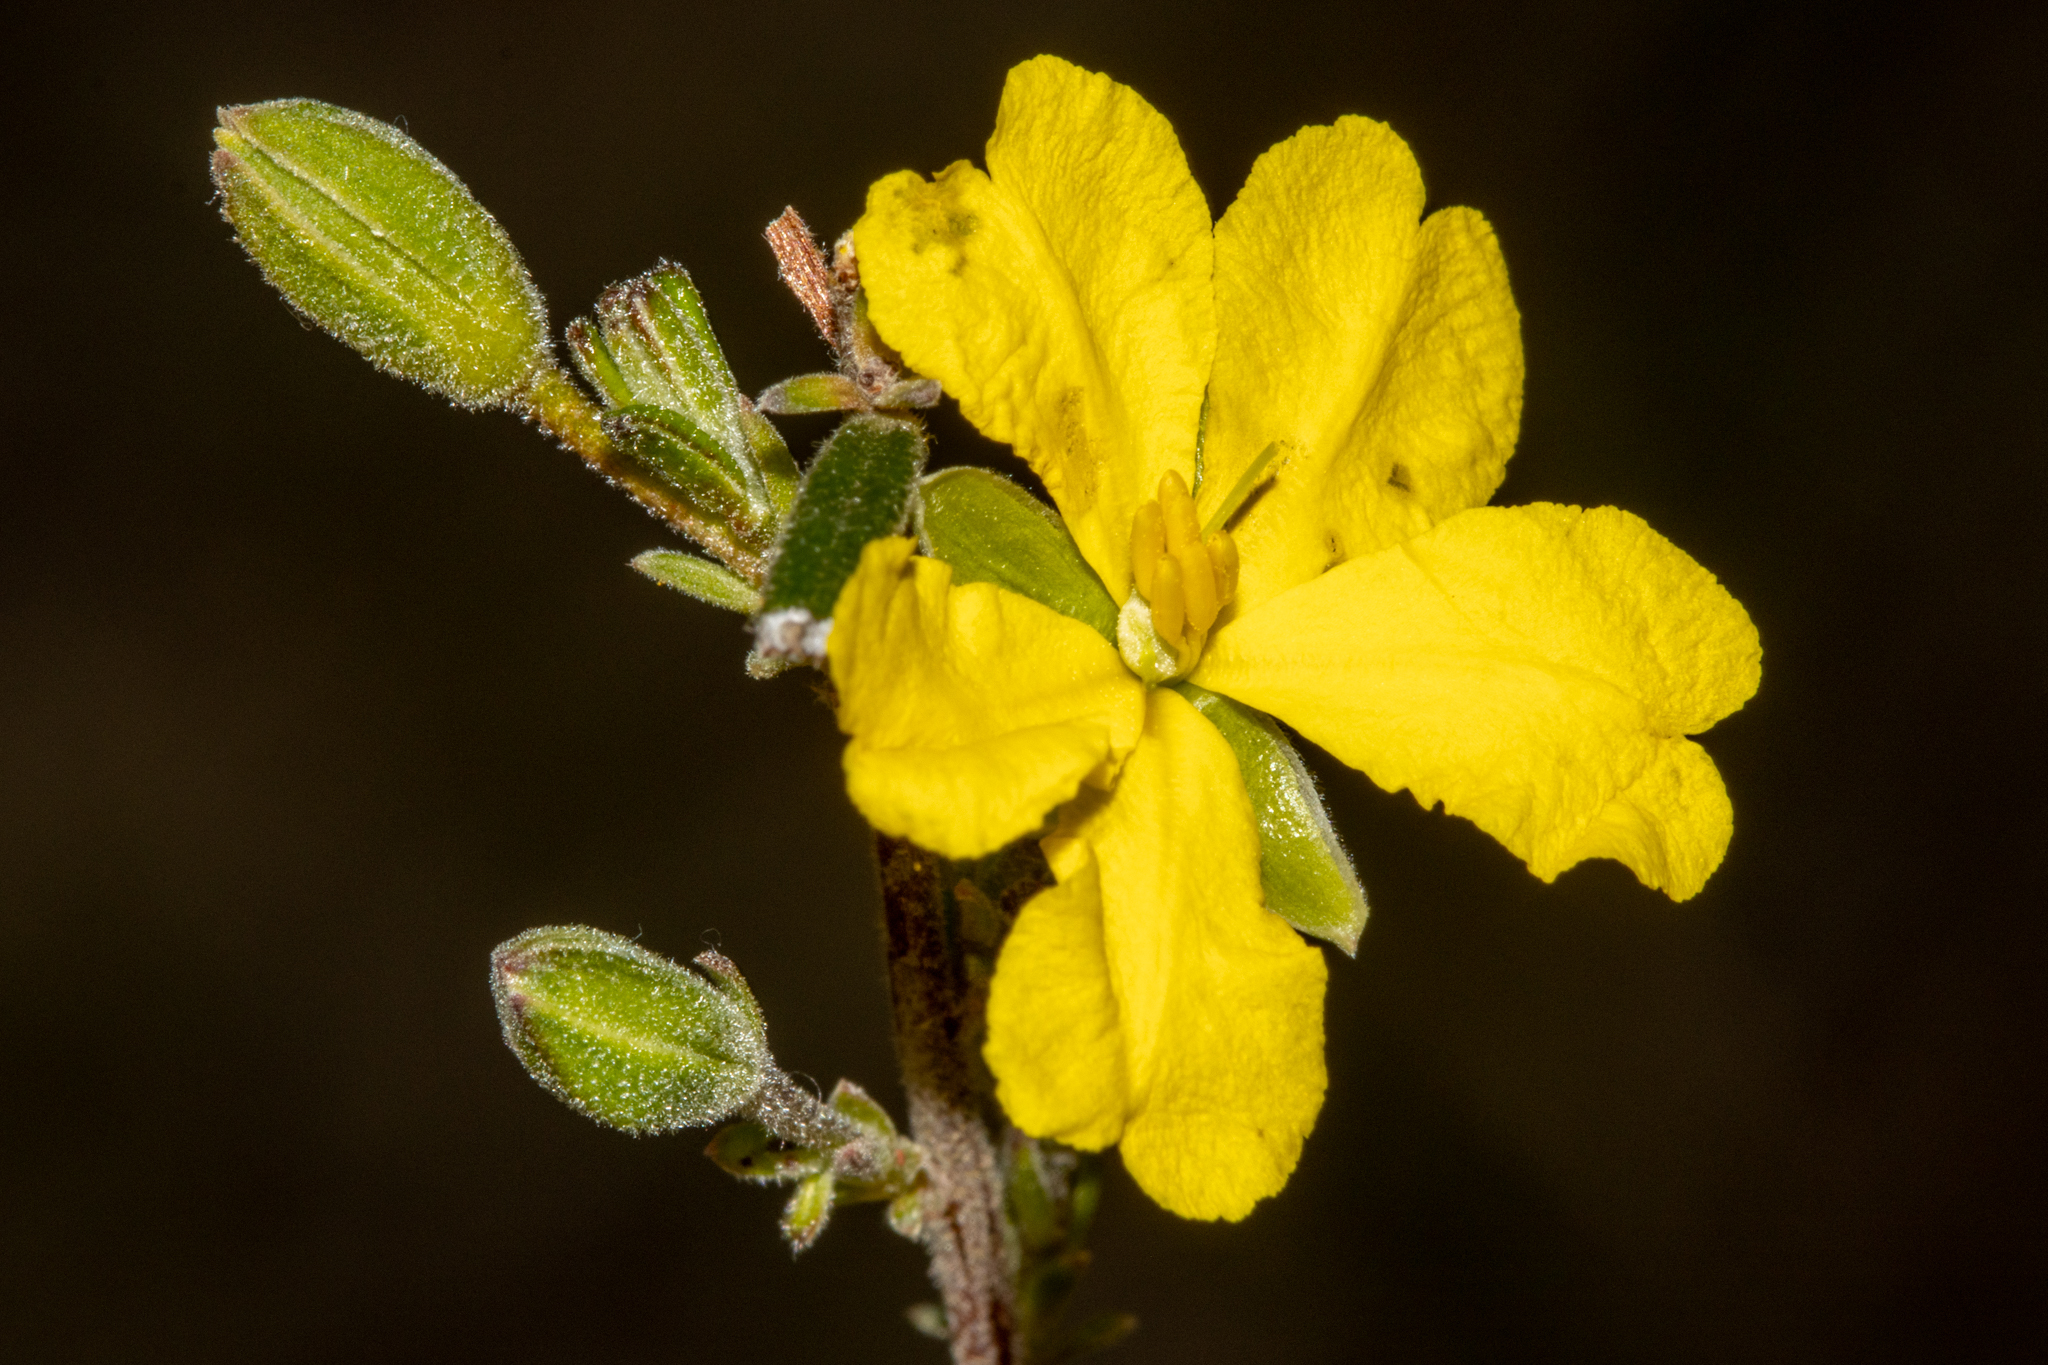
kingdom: Plantae
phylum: Tracheophyta
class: Magnoliopsida
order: Dilleniales
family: Dilleniaceae
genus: Hibbertia
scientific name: Hibbertia australis
